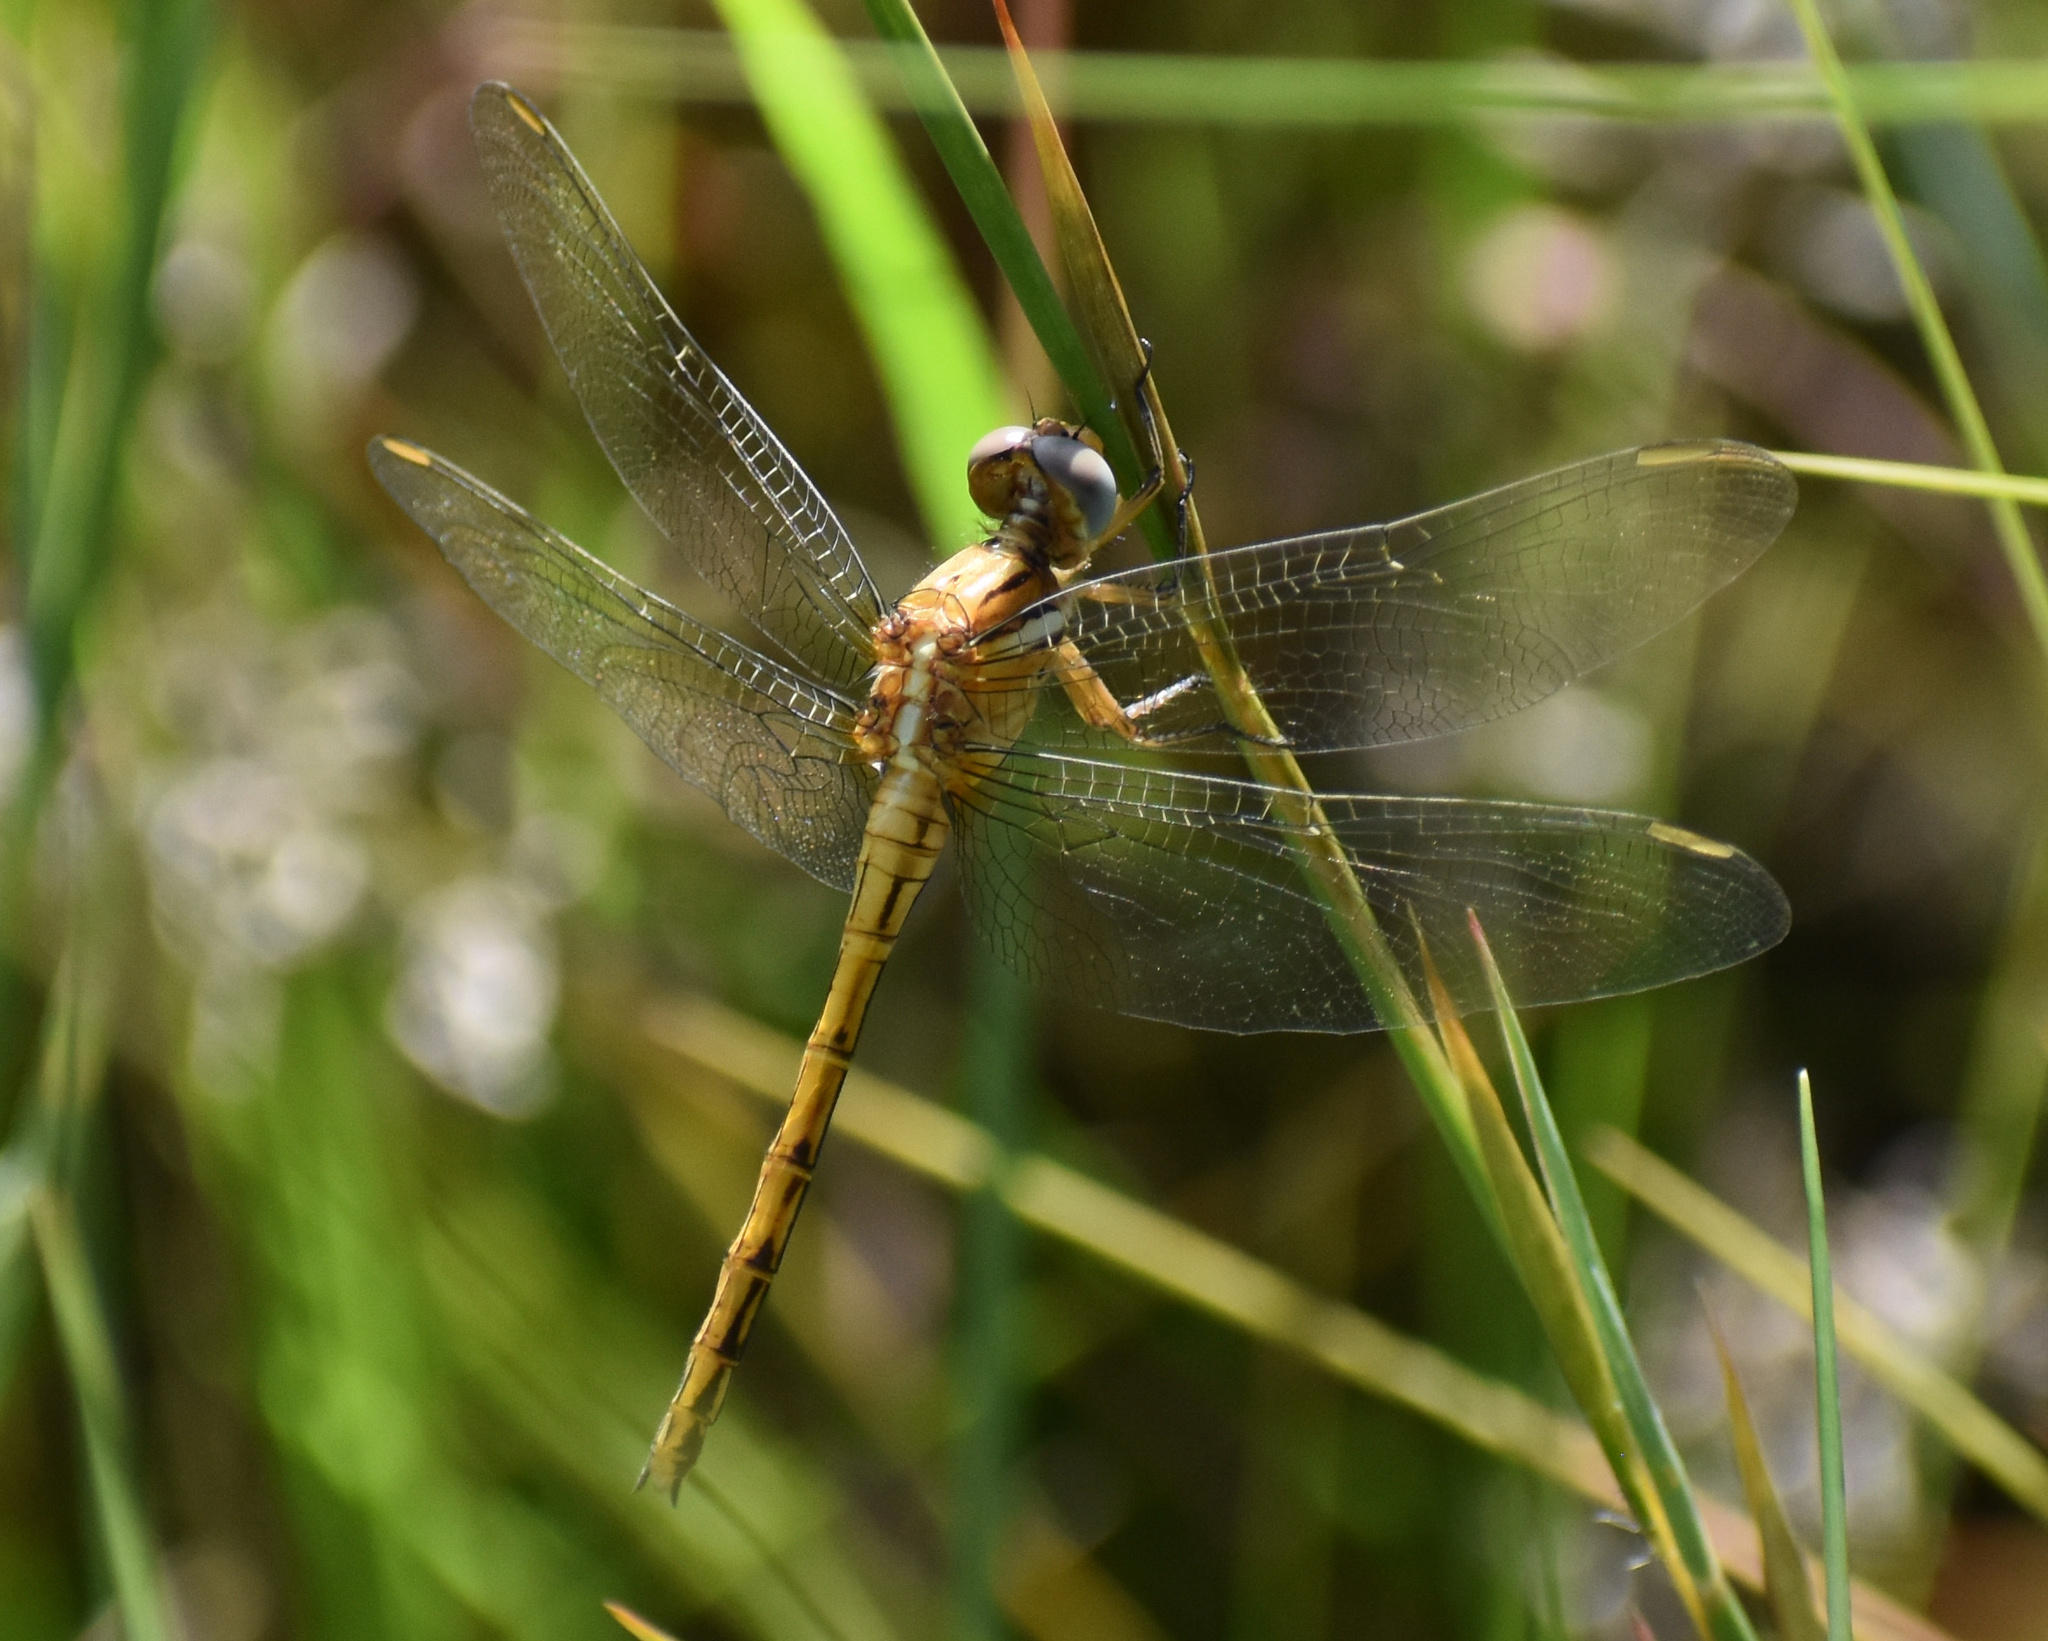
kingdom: Animalia
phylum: Arthropoda
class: Insecta
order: Odonata
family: Libellulidae
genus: Orthetrum
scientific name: Orthetrum chrysostigma
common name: Epaulet skimmer
